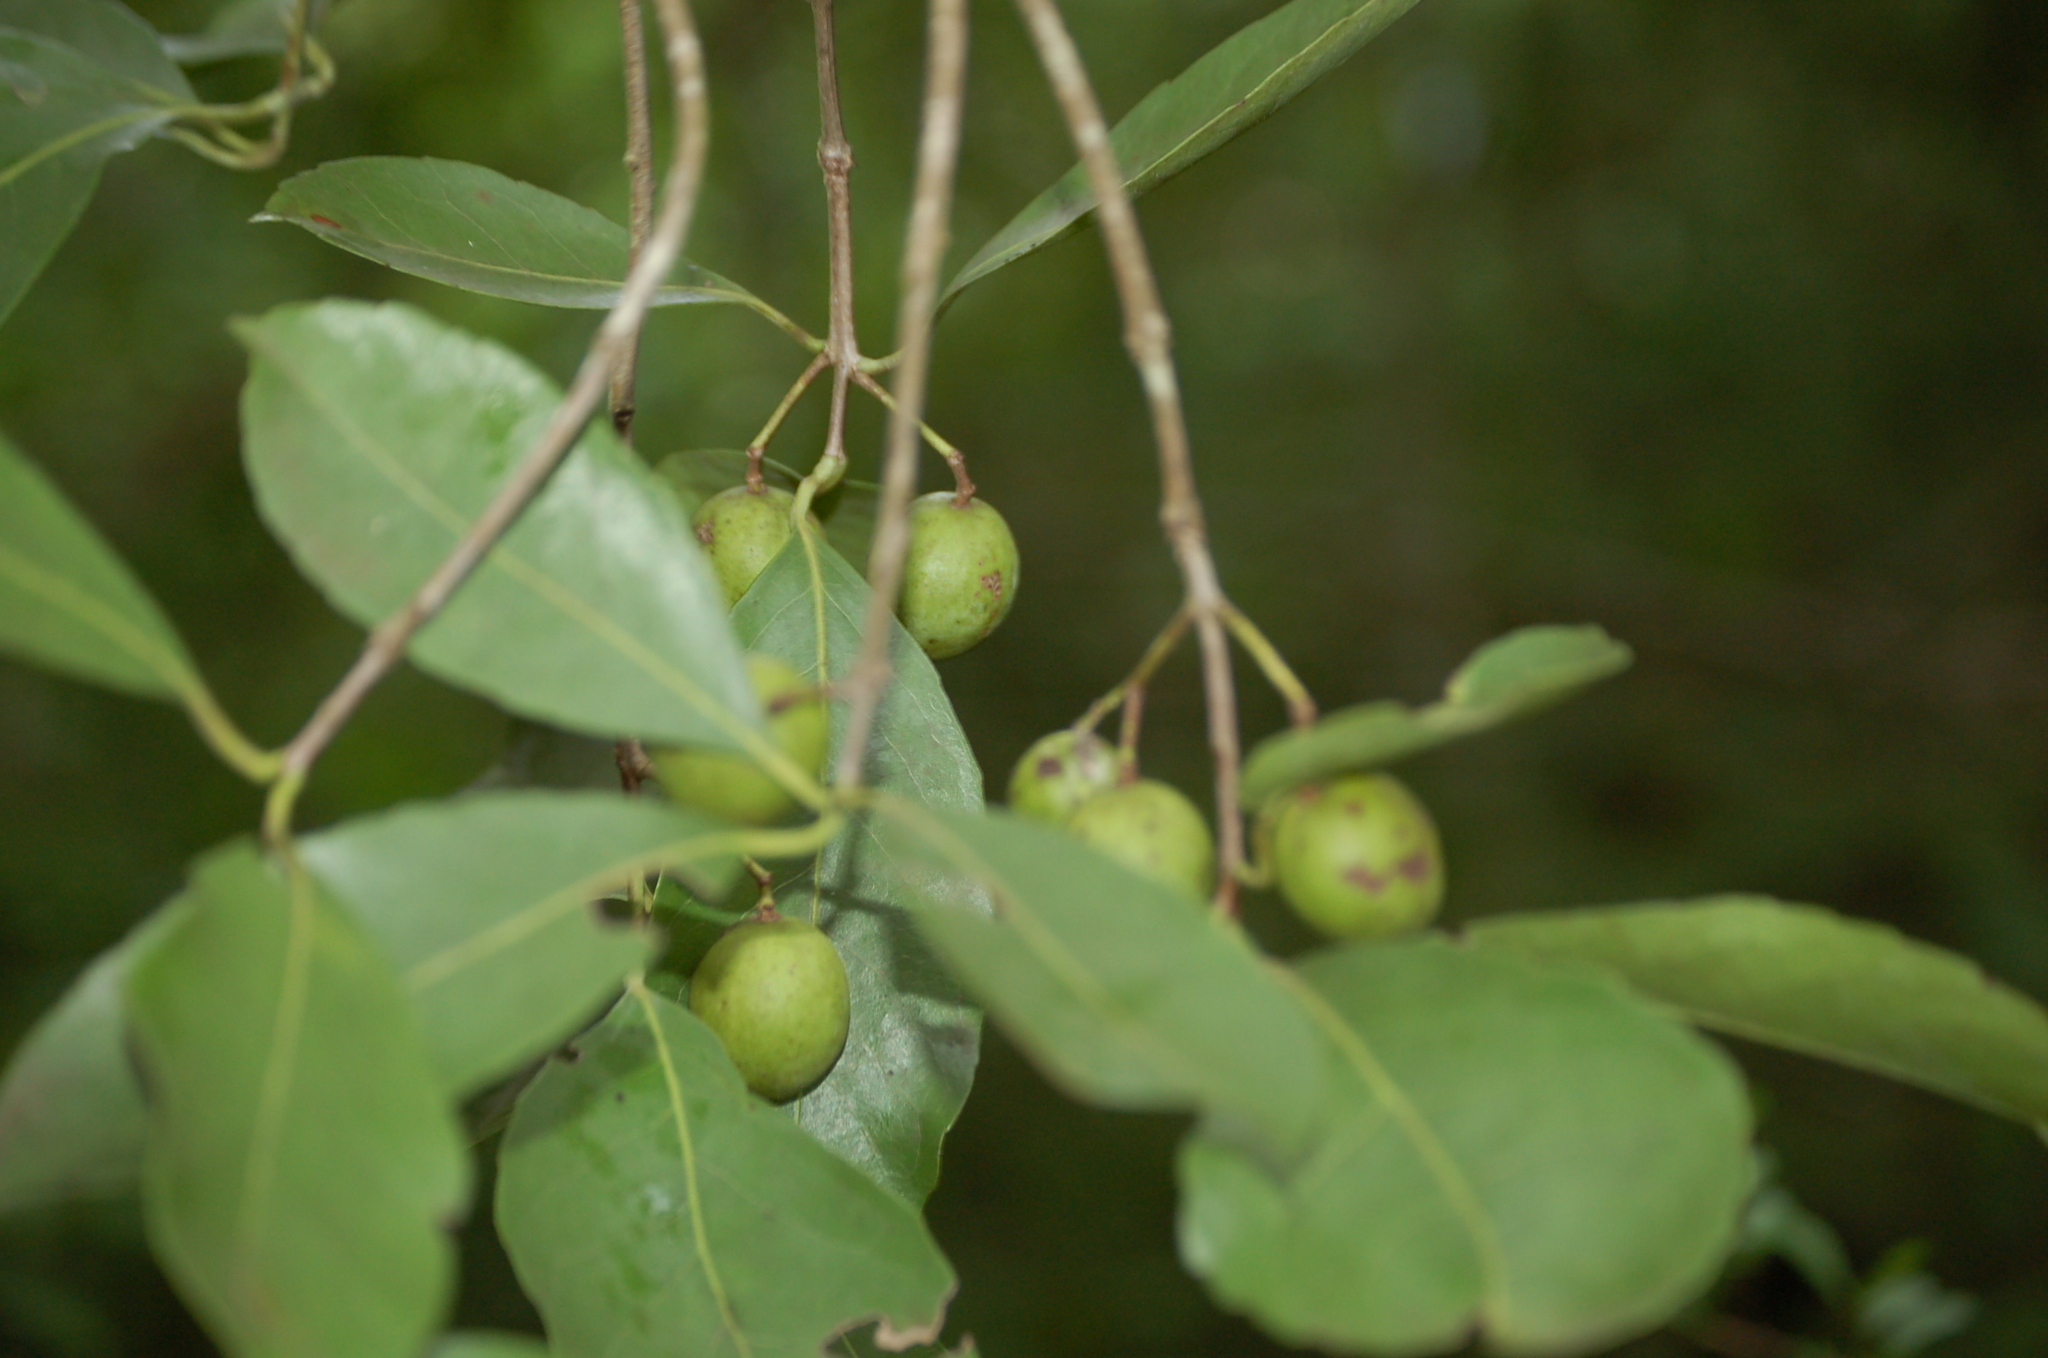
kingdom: Plantae
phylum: Tracheophyta
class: Magnoliopsida
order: Celastrales
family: Celastraceae
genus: Elaeodendron
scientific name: Elaeodendron xylocarpum
